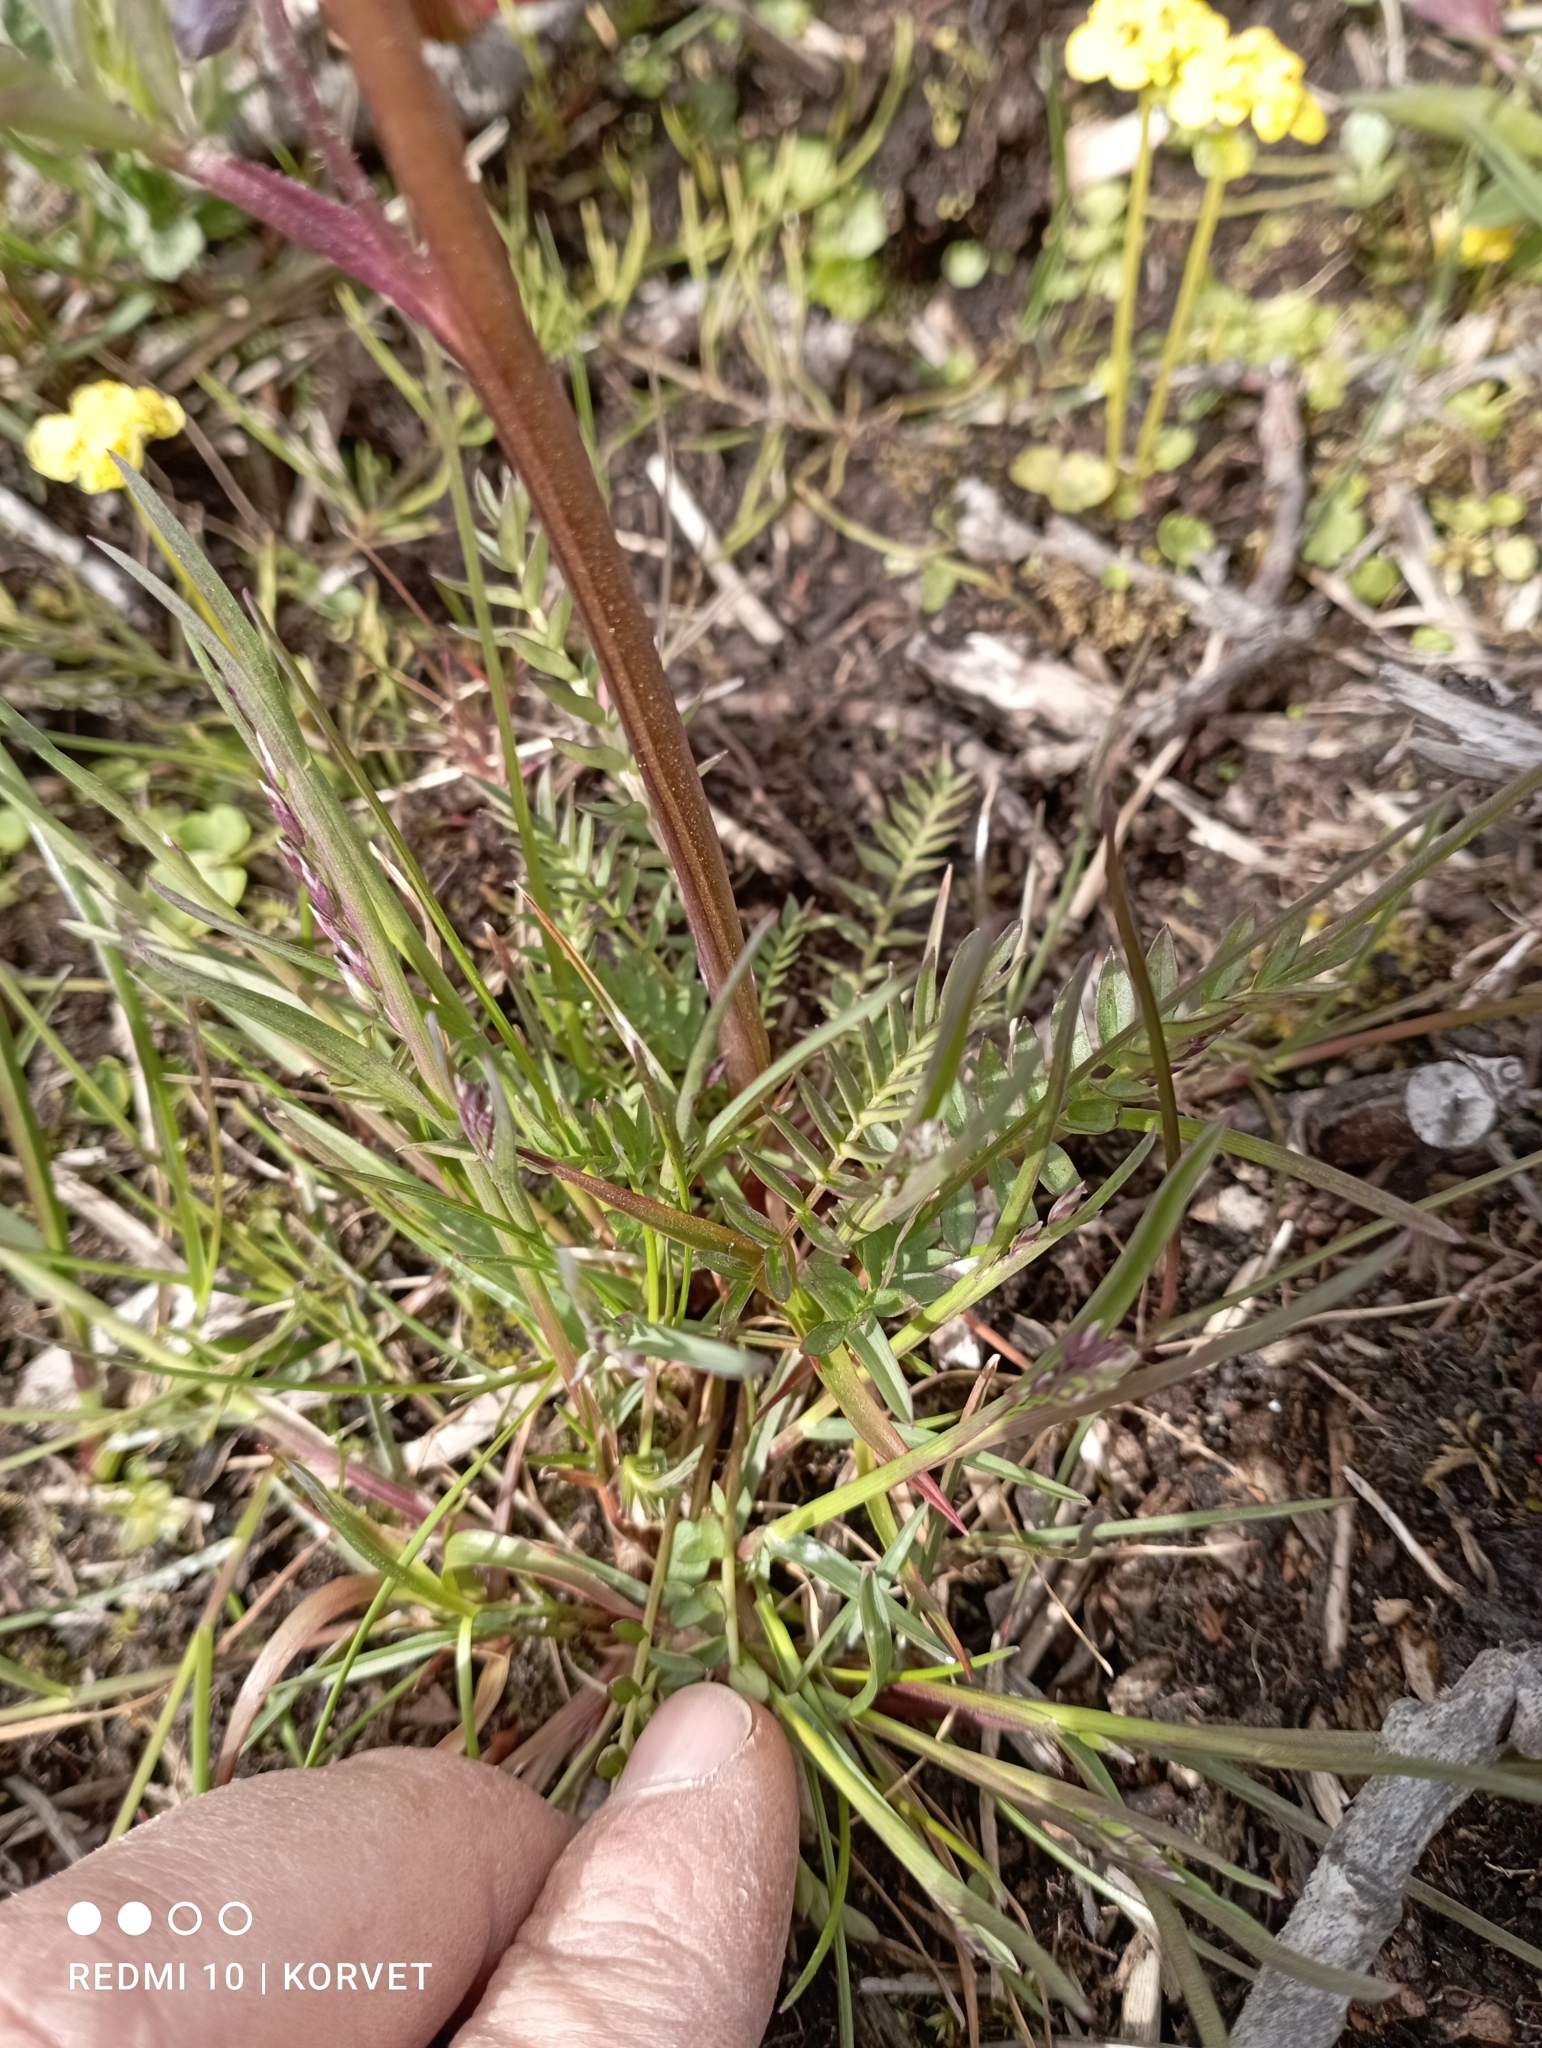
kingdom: Plantae
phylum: Tracheophyta
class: Magnoliopsida
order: Ericales
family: Polemoniaceae
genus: Polemonium
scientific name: Polemonium acutiflorum
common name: Tall jacob's-ladder
